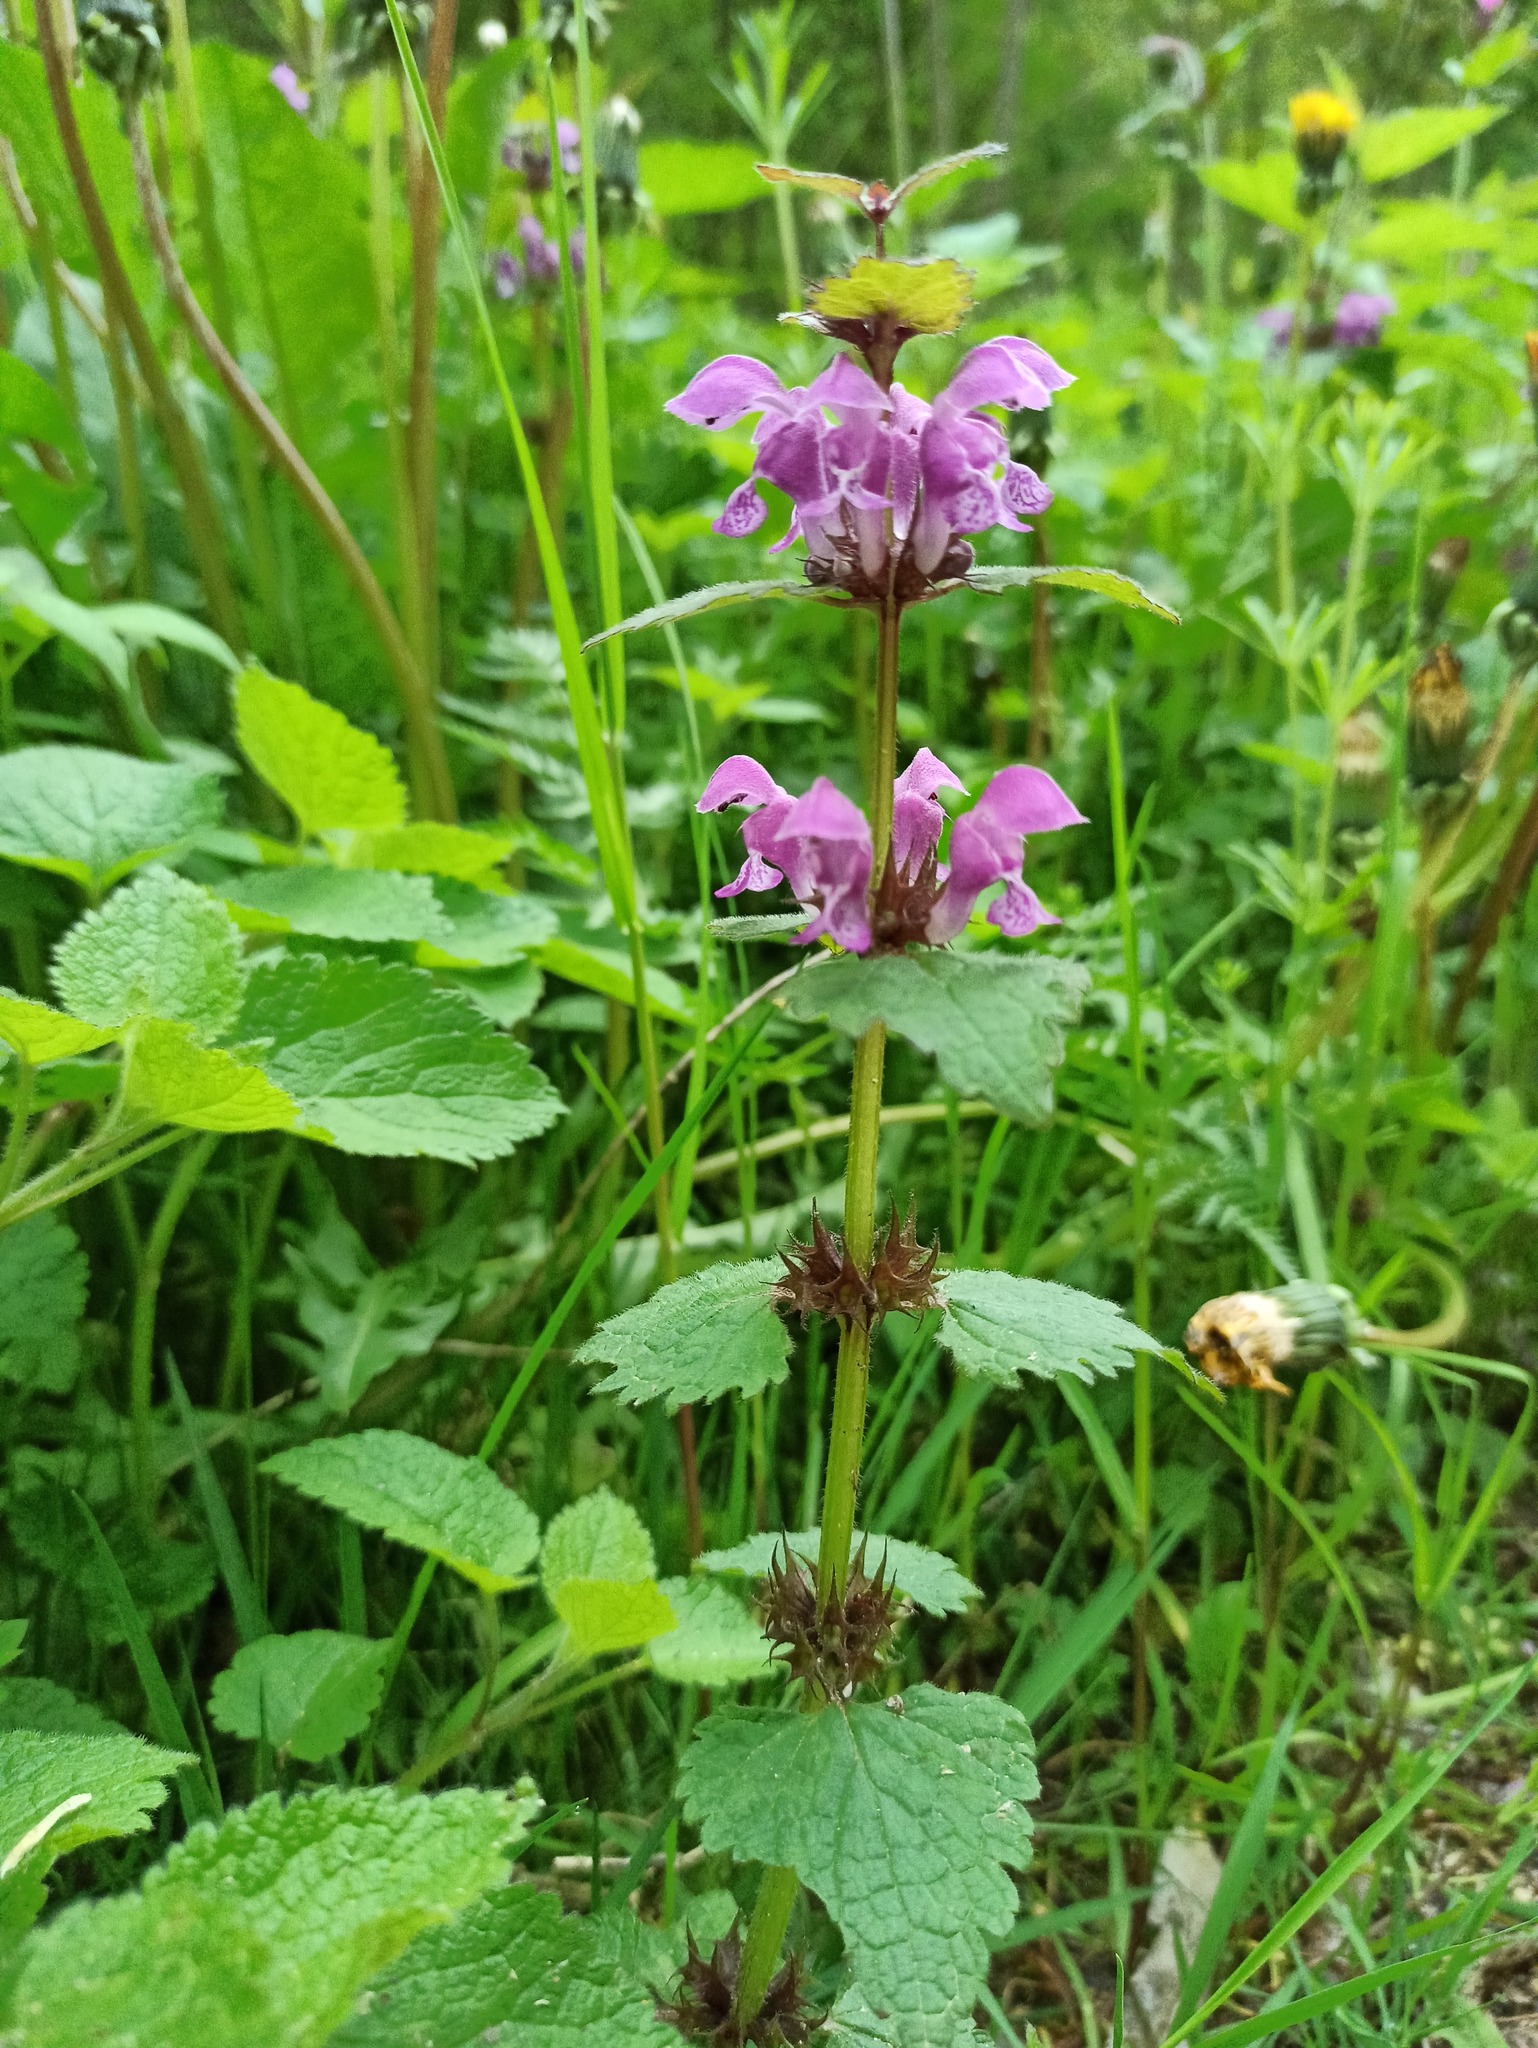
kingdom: Plantae
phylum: Tracheophyta
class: Magnoliopsida
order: Lamiales
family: Lamiaceae
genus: Lamium
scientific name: Lamium maculatum
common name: Spotted dead-nettle
